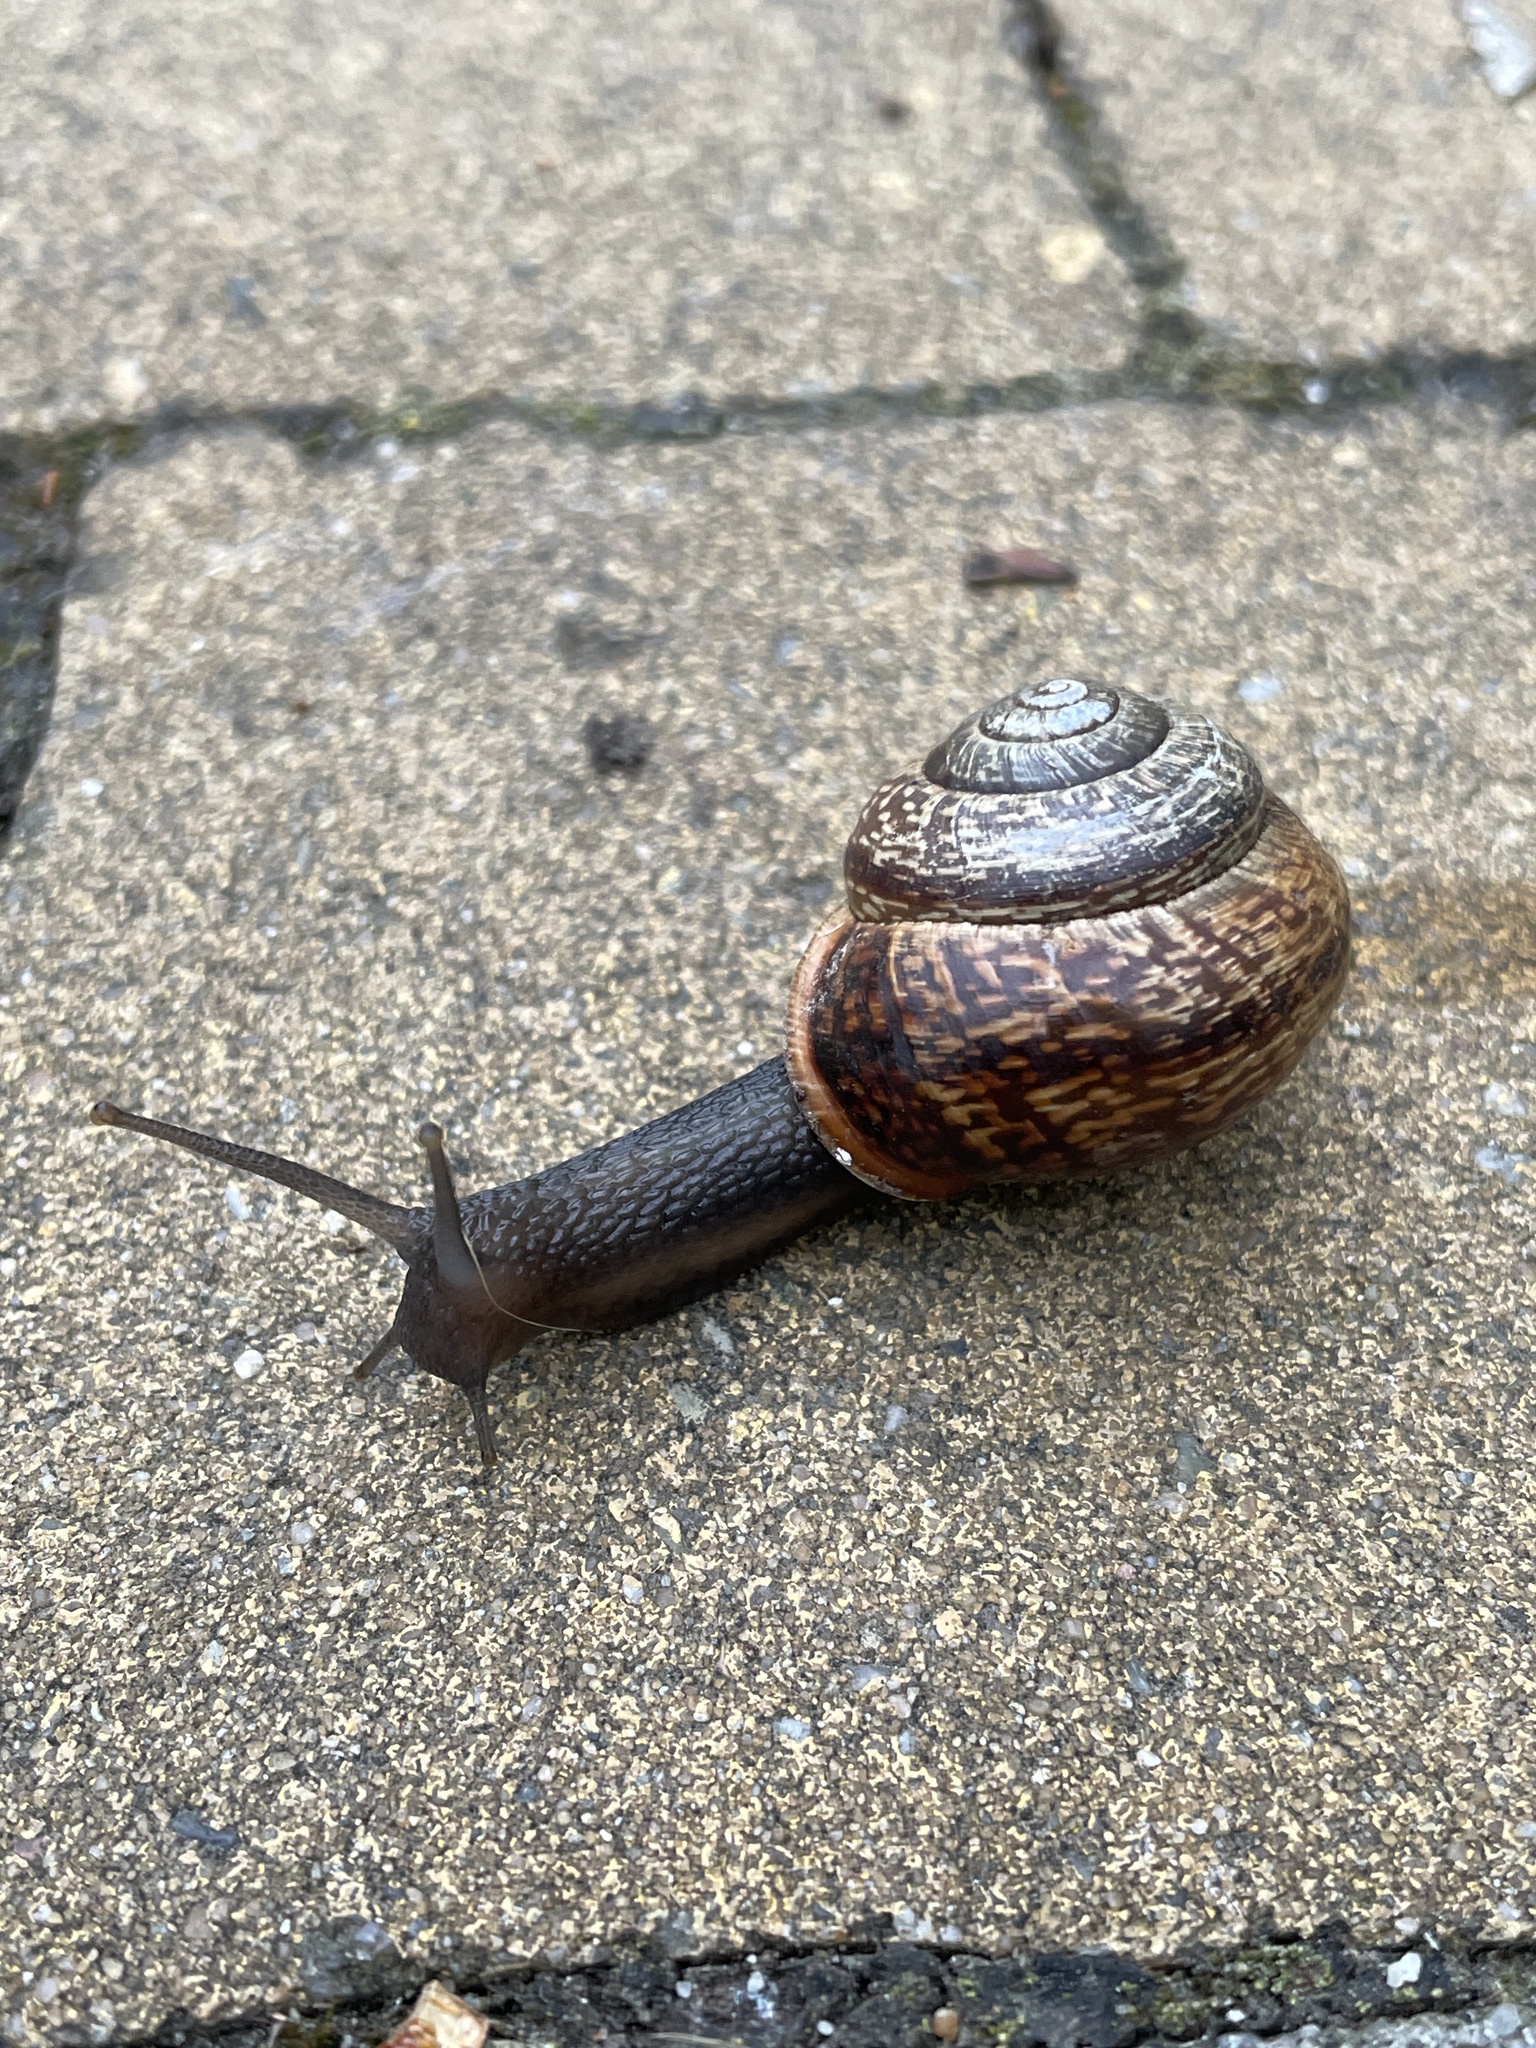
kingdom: Animalia
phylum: Mollusca
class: Gastropoda
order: Stylommatophora
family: Helicidae
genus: Arianta
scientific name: Arianta arbustorum
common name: Copse snail
